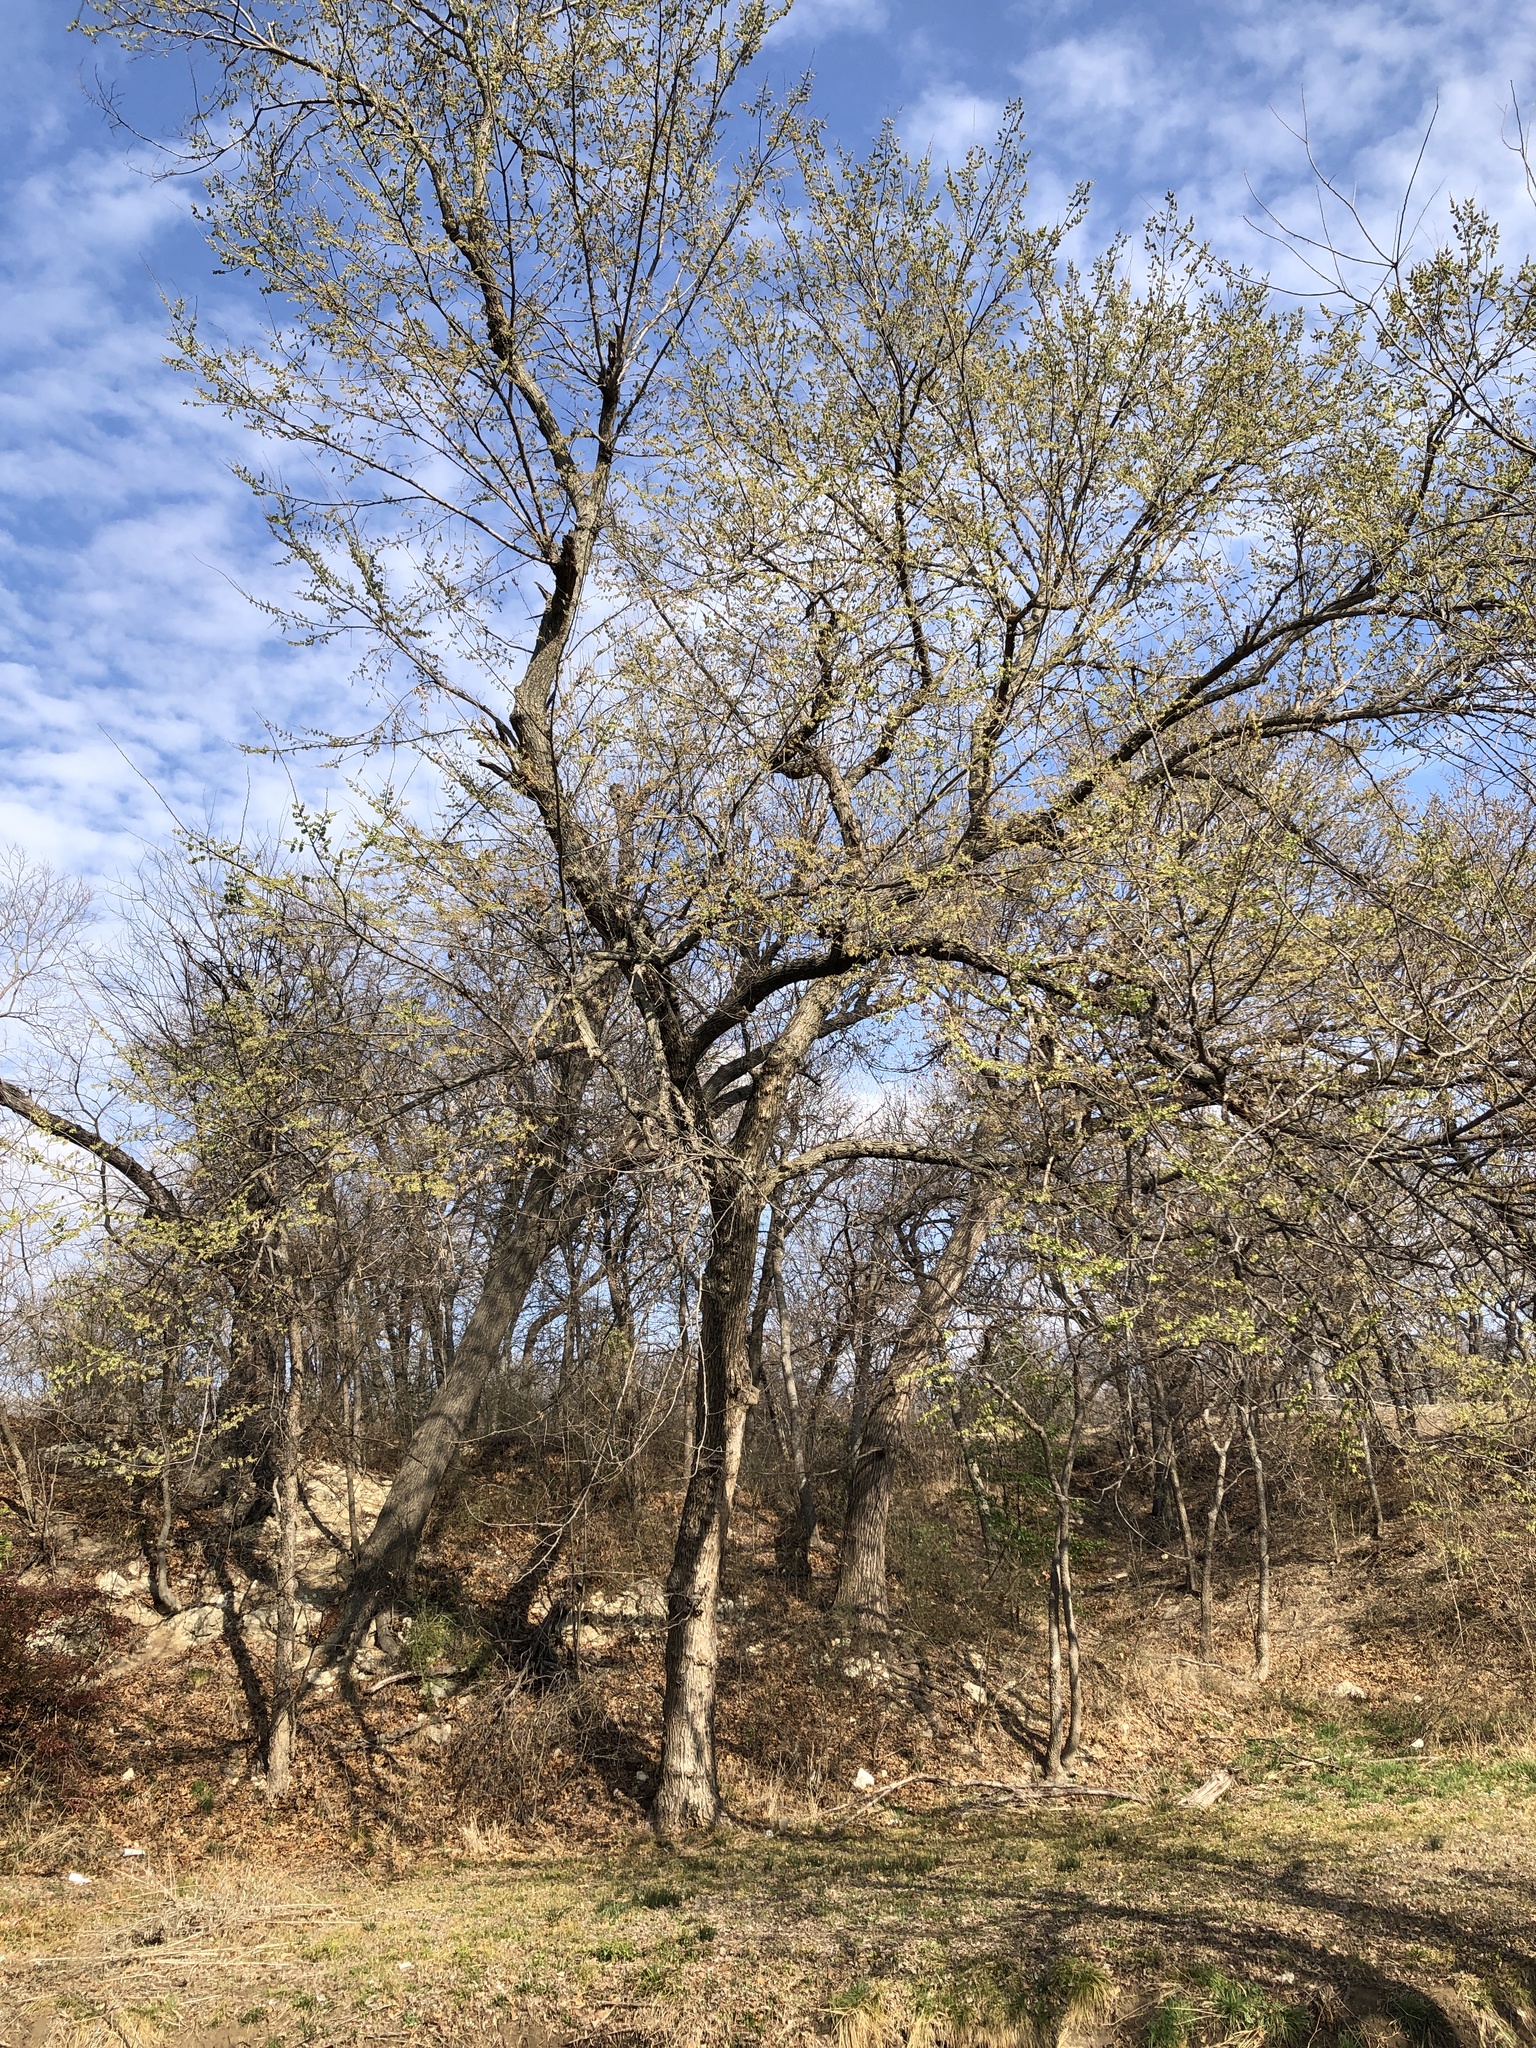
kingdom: Plantae
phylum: Tracheophyta
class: Magnoliopsida
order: Rosales
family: Ulmaceae
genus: Ulmus
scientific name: Ulmus americana
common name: American elm
